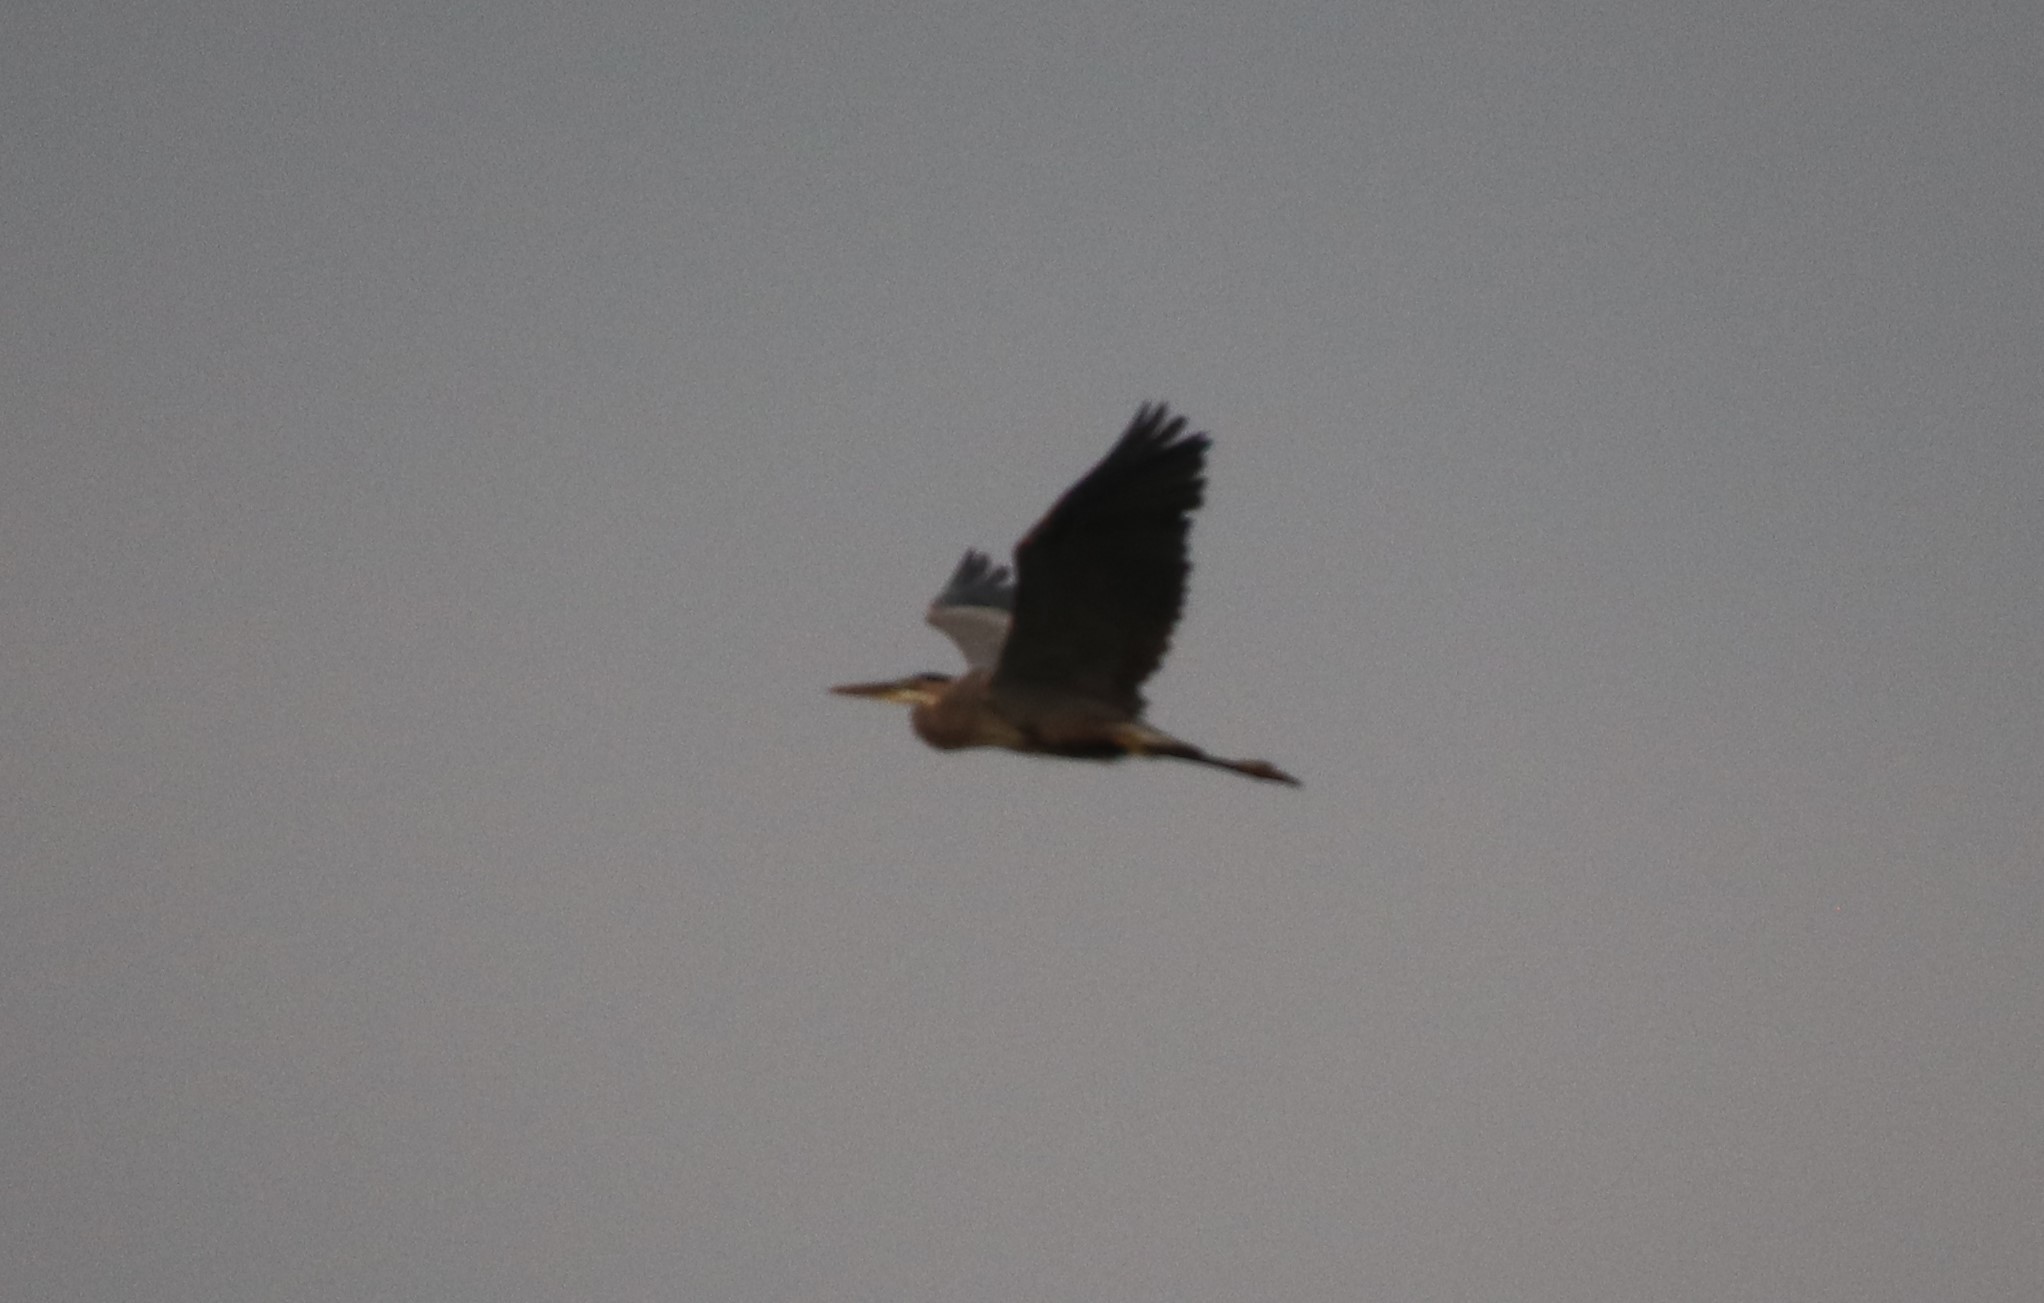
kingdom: Animalia
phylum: Chordata
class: Aves
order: Pelecaniformes
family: Ardeidae
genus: Ardea
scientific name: Ardea herodias
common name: Great blue heron
